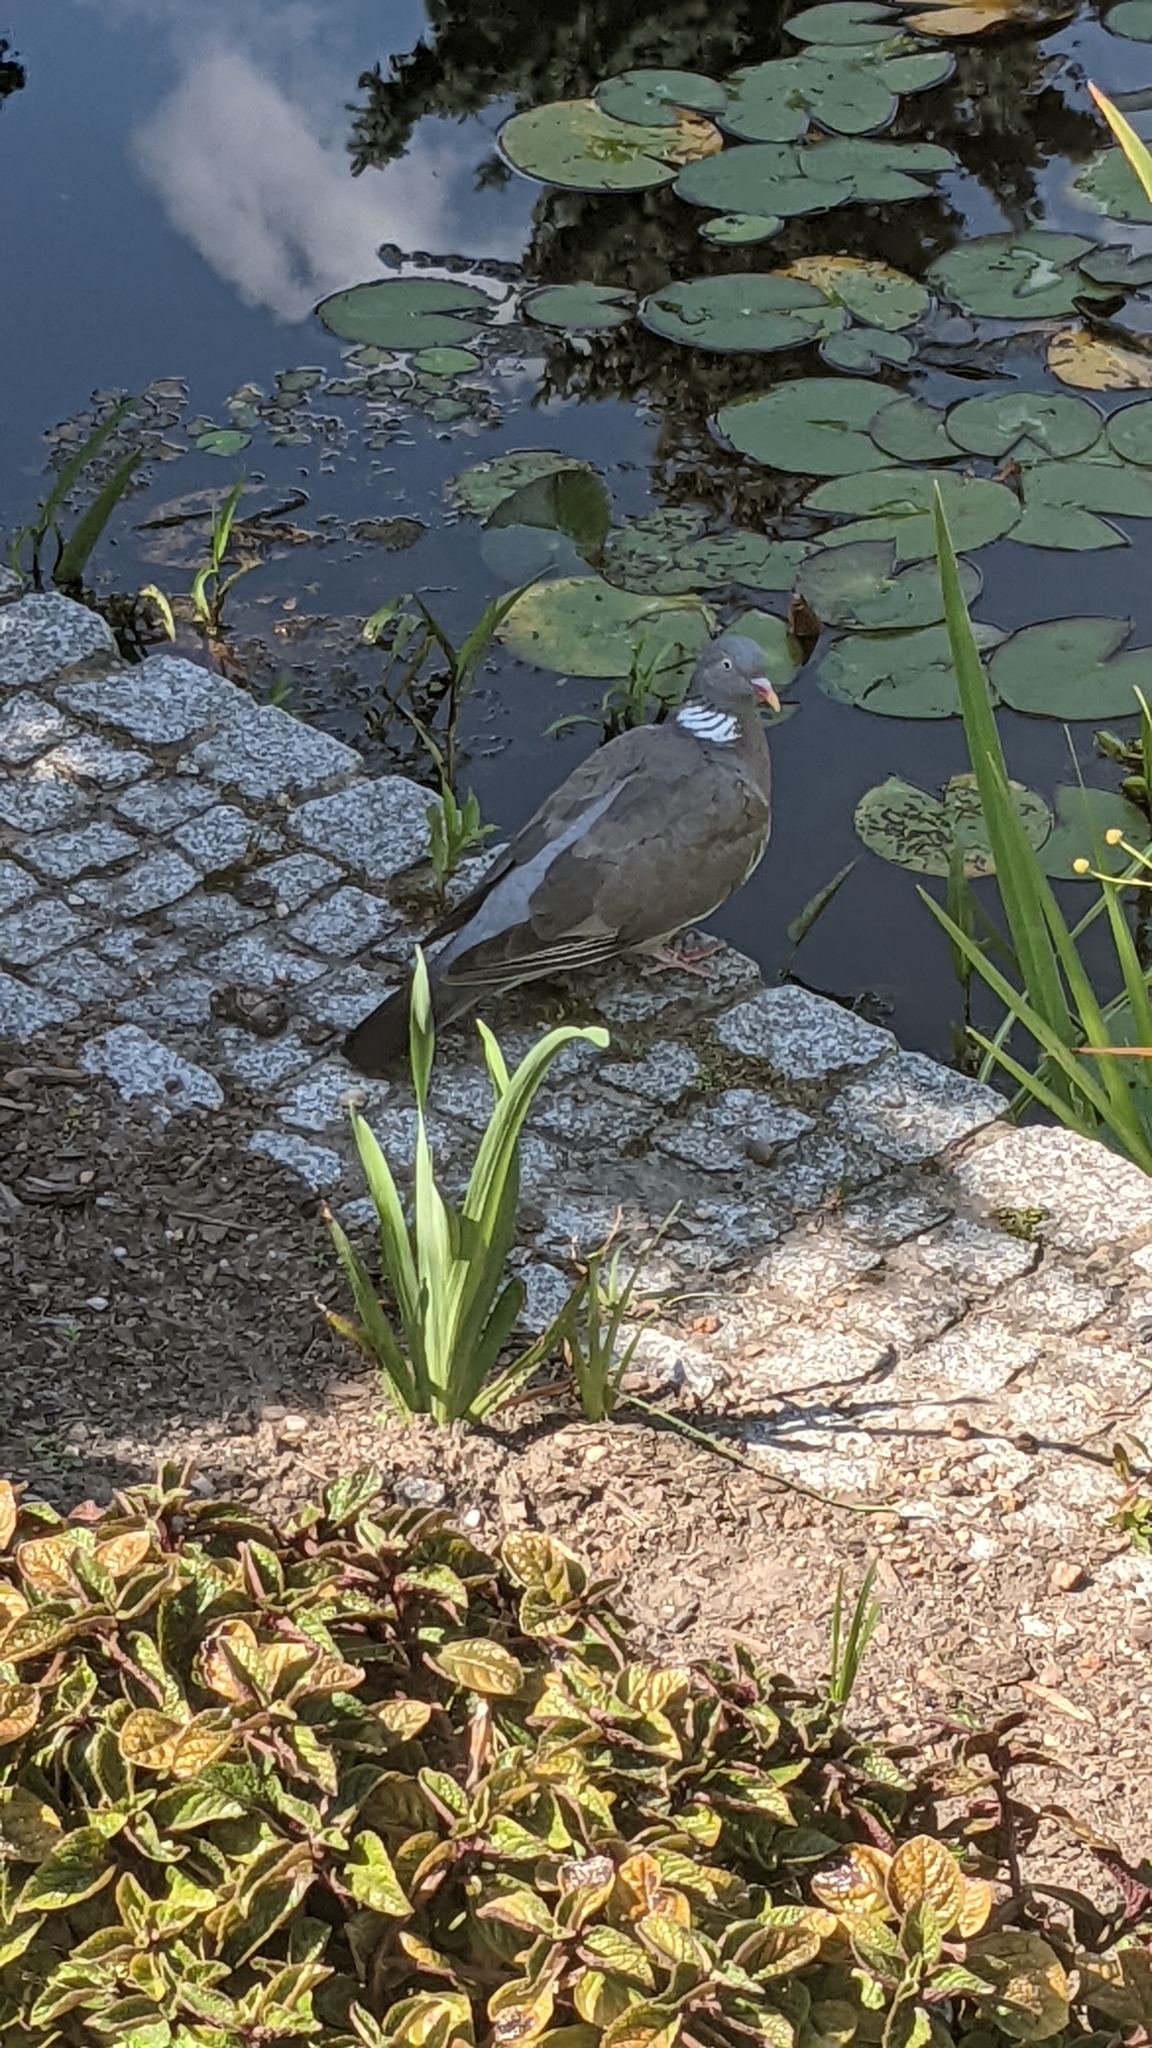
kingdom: Animalia
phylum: Chordata
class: Aves
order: Columbiformes
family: Columbidae
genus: Columba
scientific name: Columba palumbus
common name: Common wood pigeon
